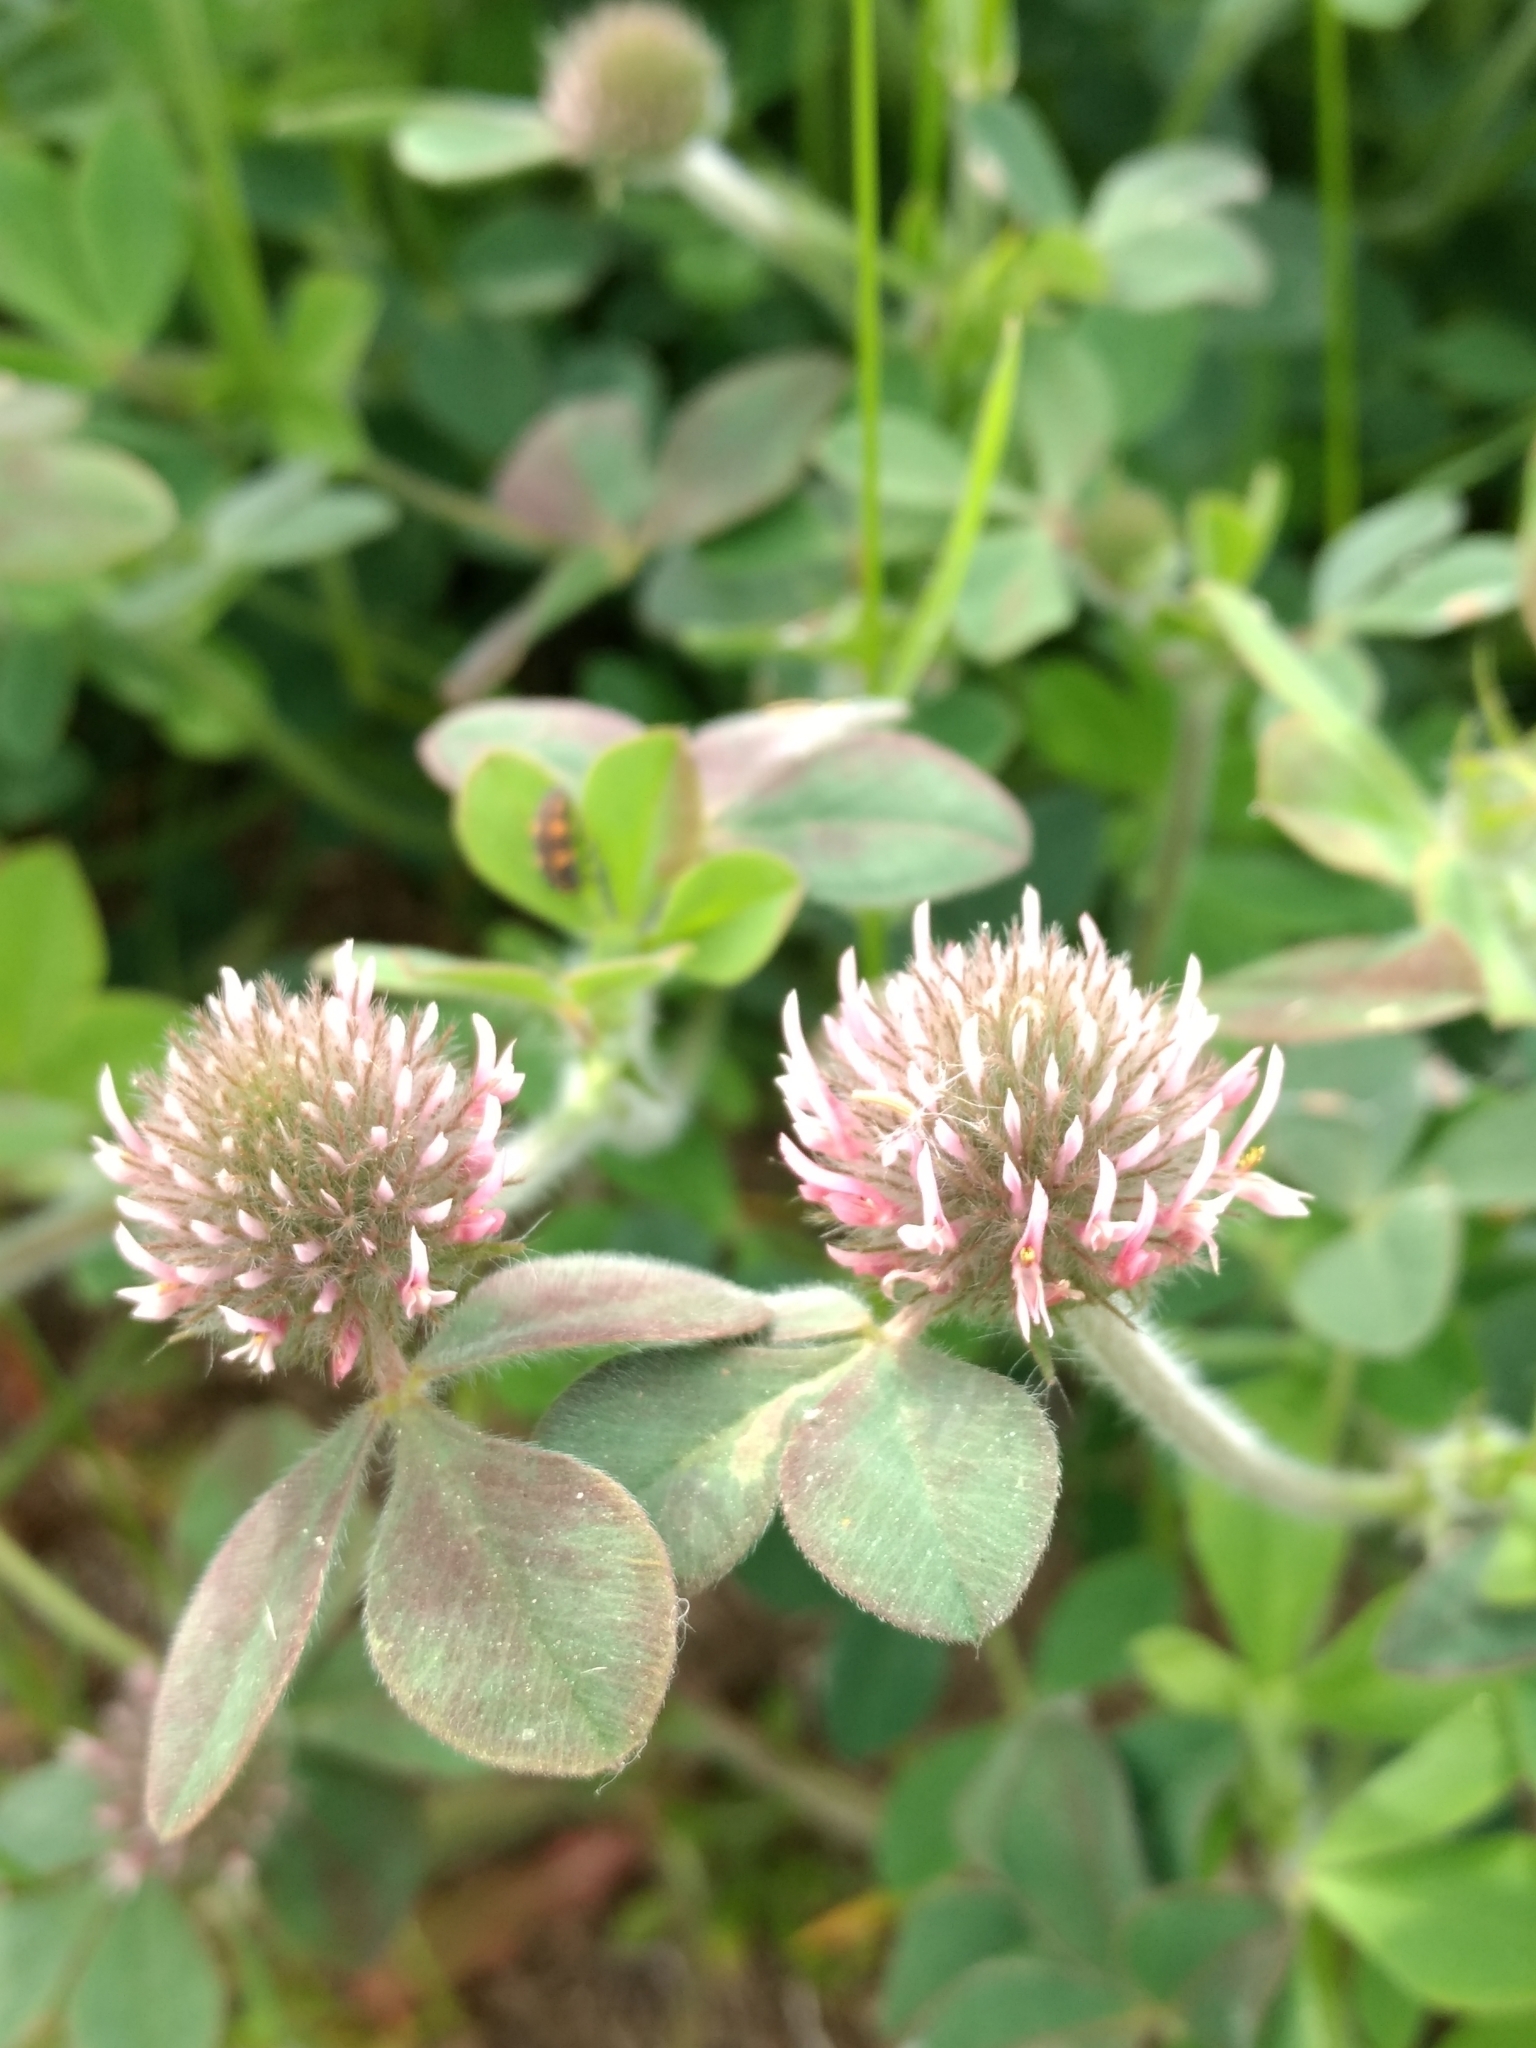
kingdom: Plantae
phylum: Tracheophyta
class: Magnoliopsida
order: Fabales
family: Fabaceae
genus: Trifolium
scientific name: Trifolium hirtum
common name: Rose clover
